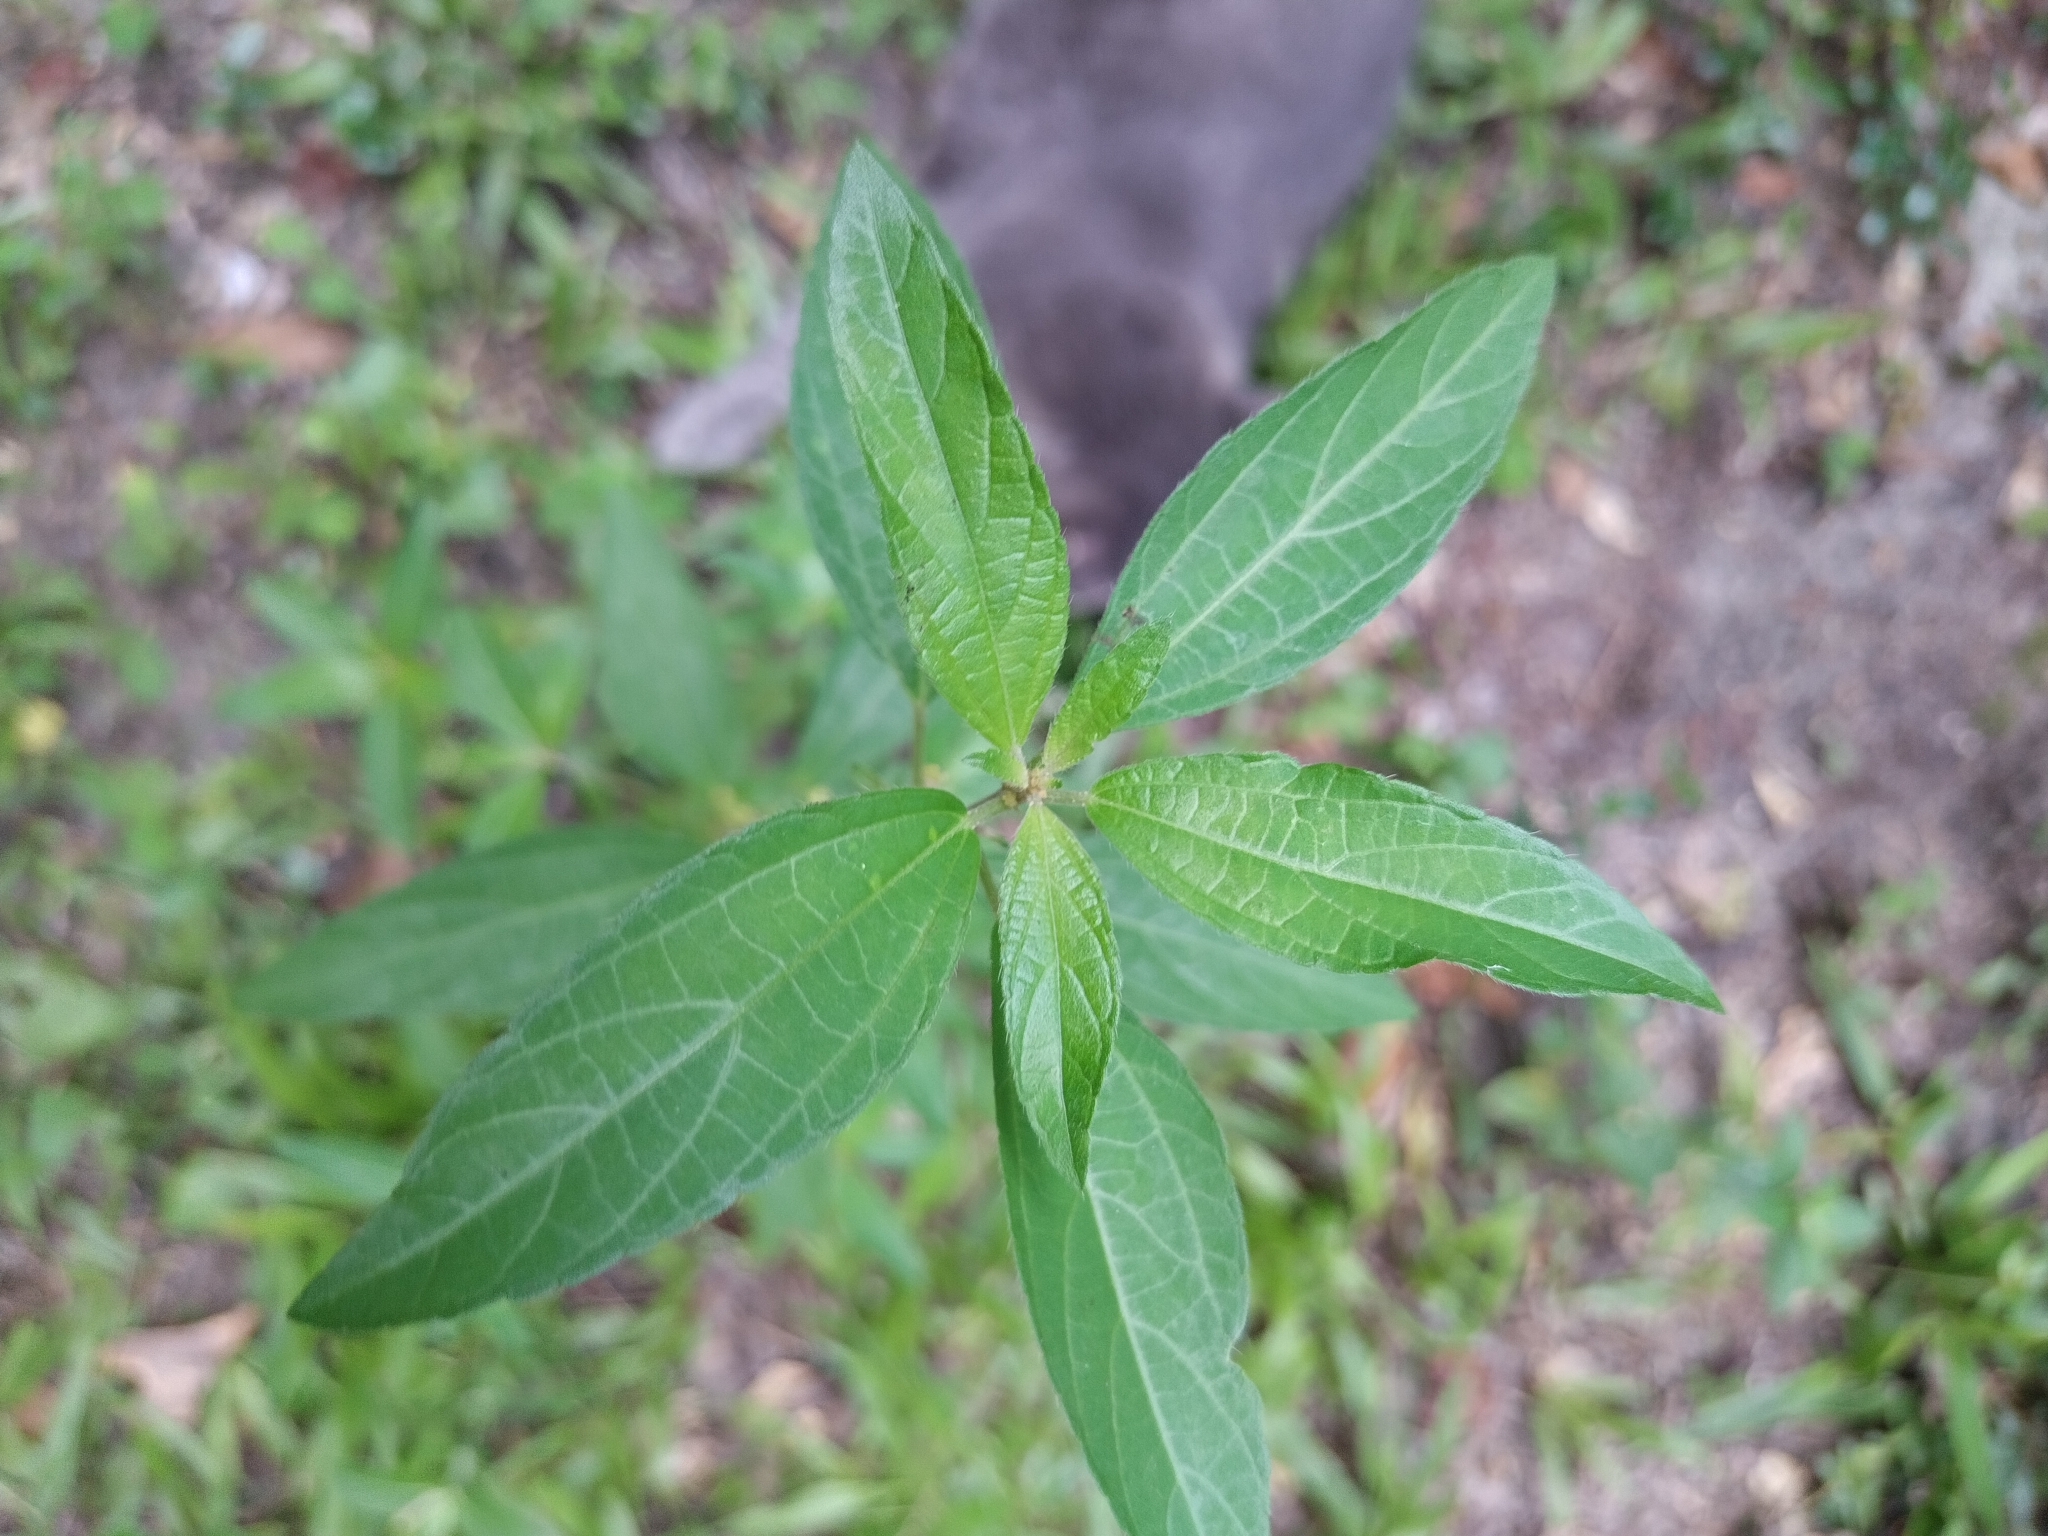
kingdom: Plantae
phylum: Tracheophyta
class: Magnoliopsida
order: Malpighiales
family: Euphorbiaceae
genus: Acalypha
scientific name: Acalypha gracilens
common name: Slender three-seeded mercury
